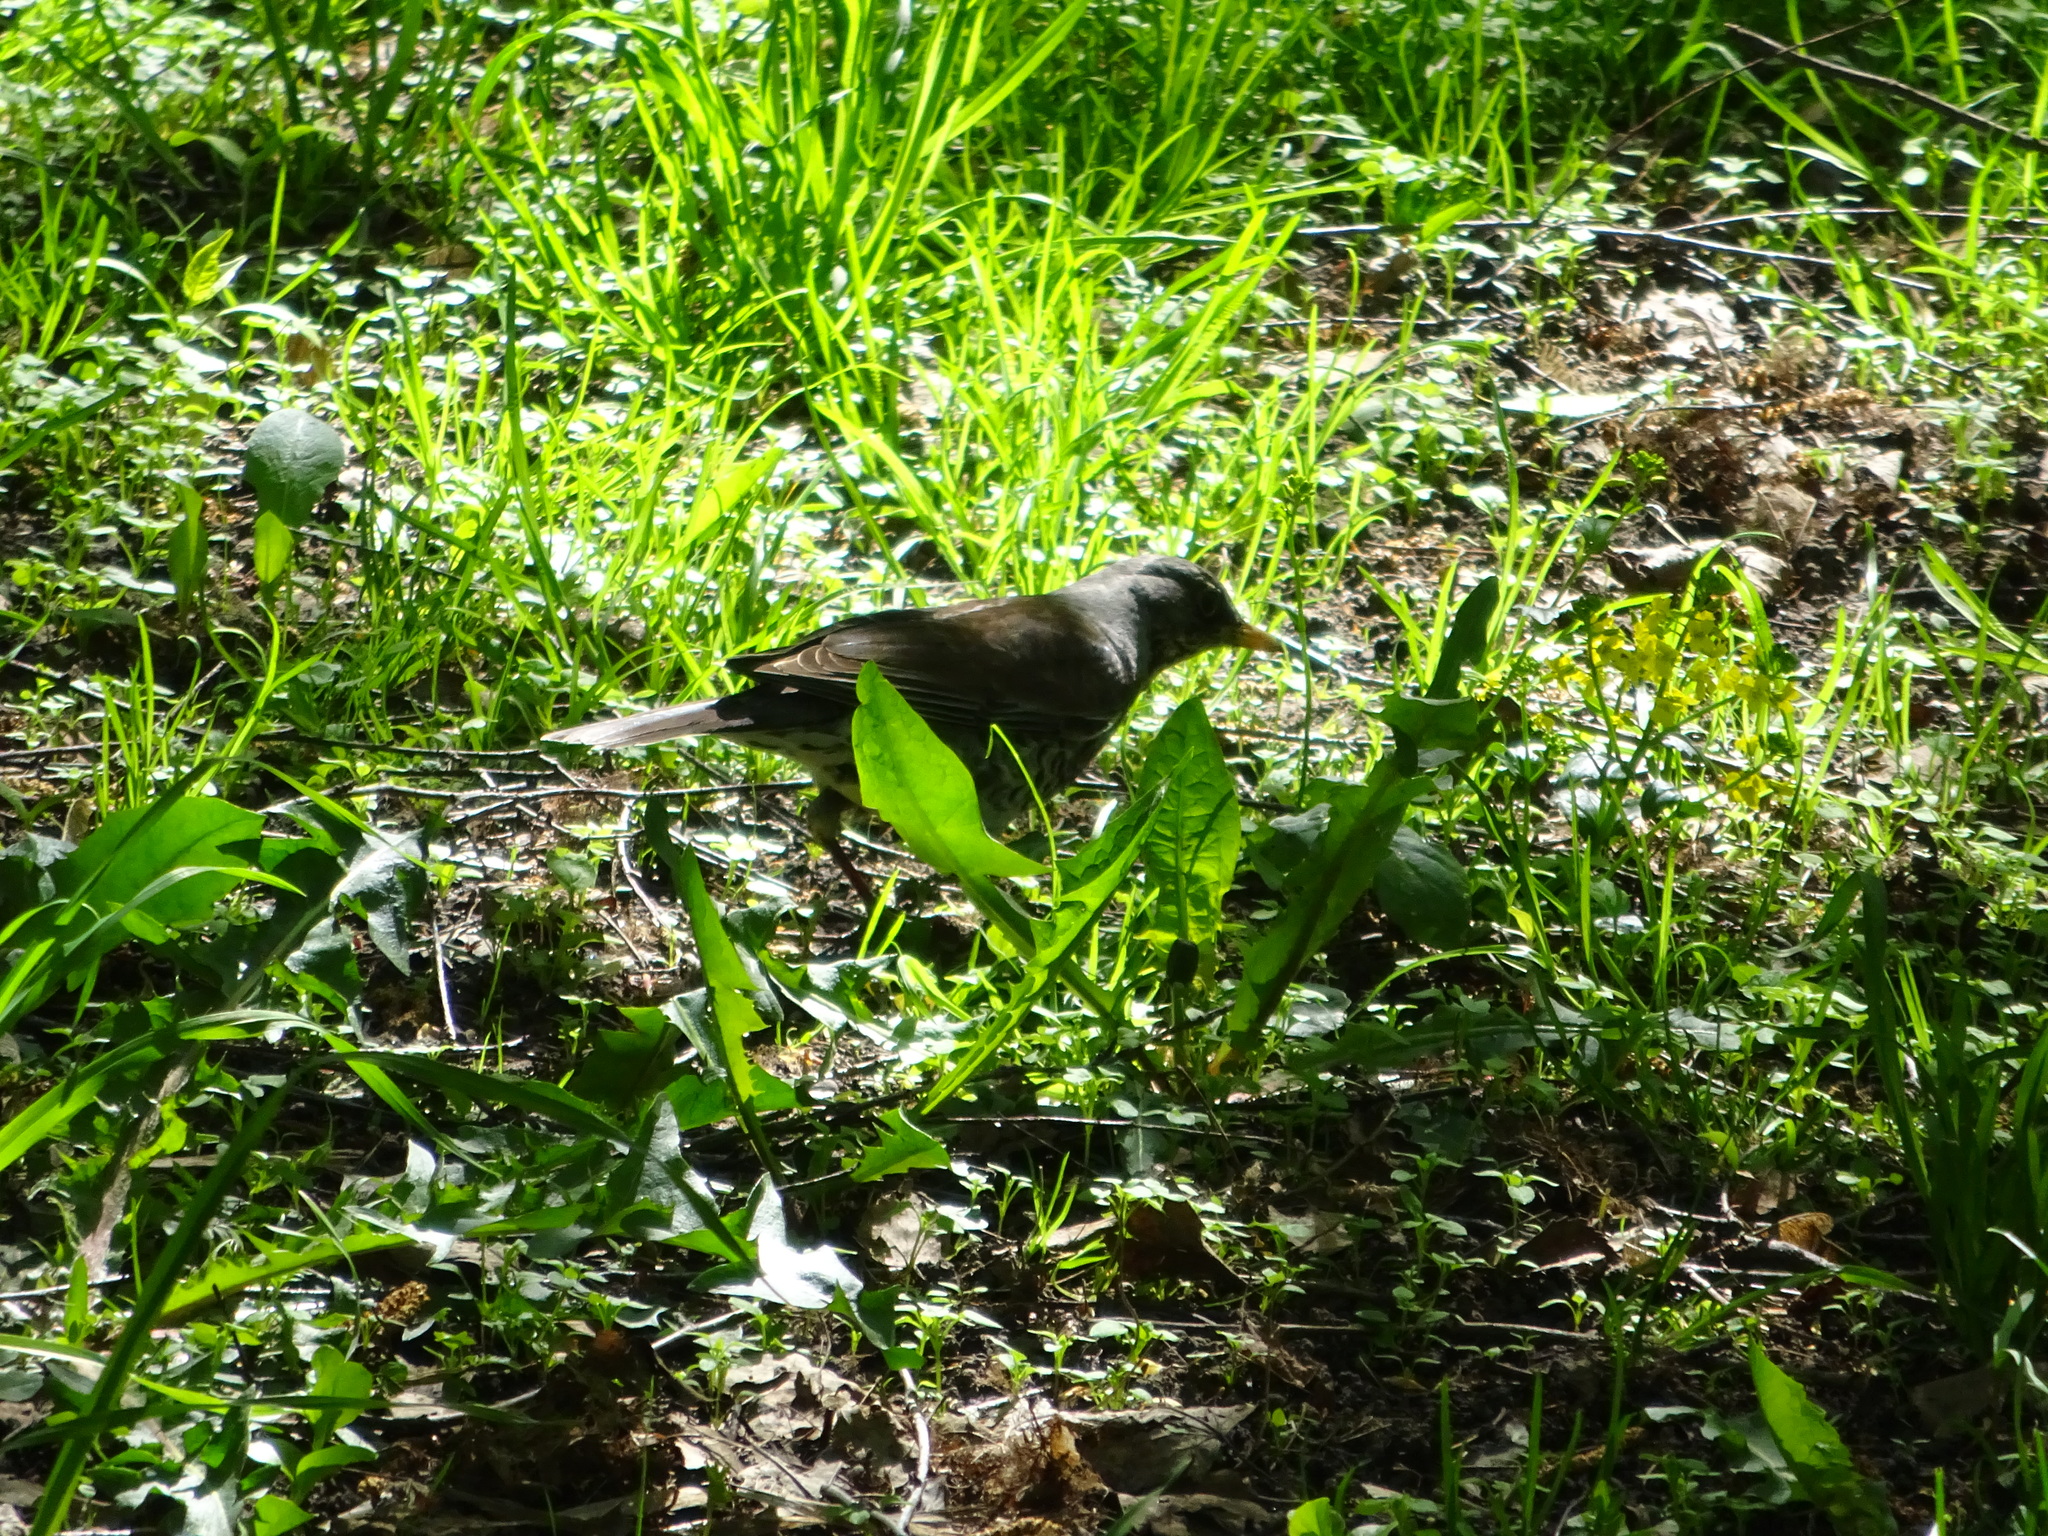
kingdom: Animalia
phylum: Chordata
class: Aves
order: Passeriformes
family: Turdidae
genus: Turdus
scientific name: Turdus pilaris
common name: Fieldfare
